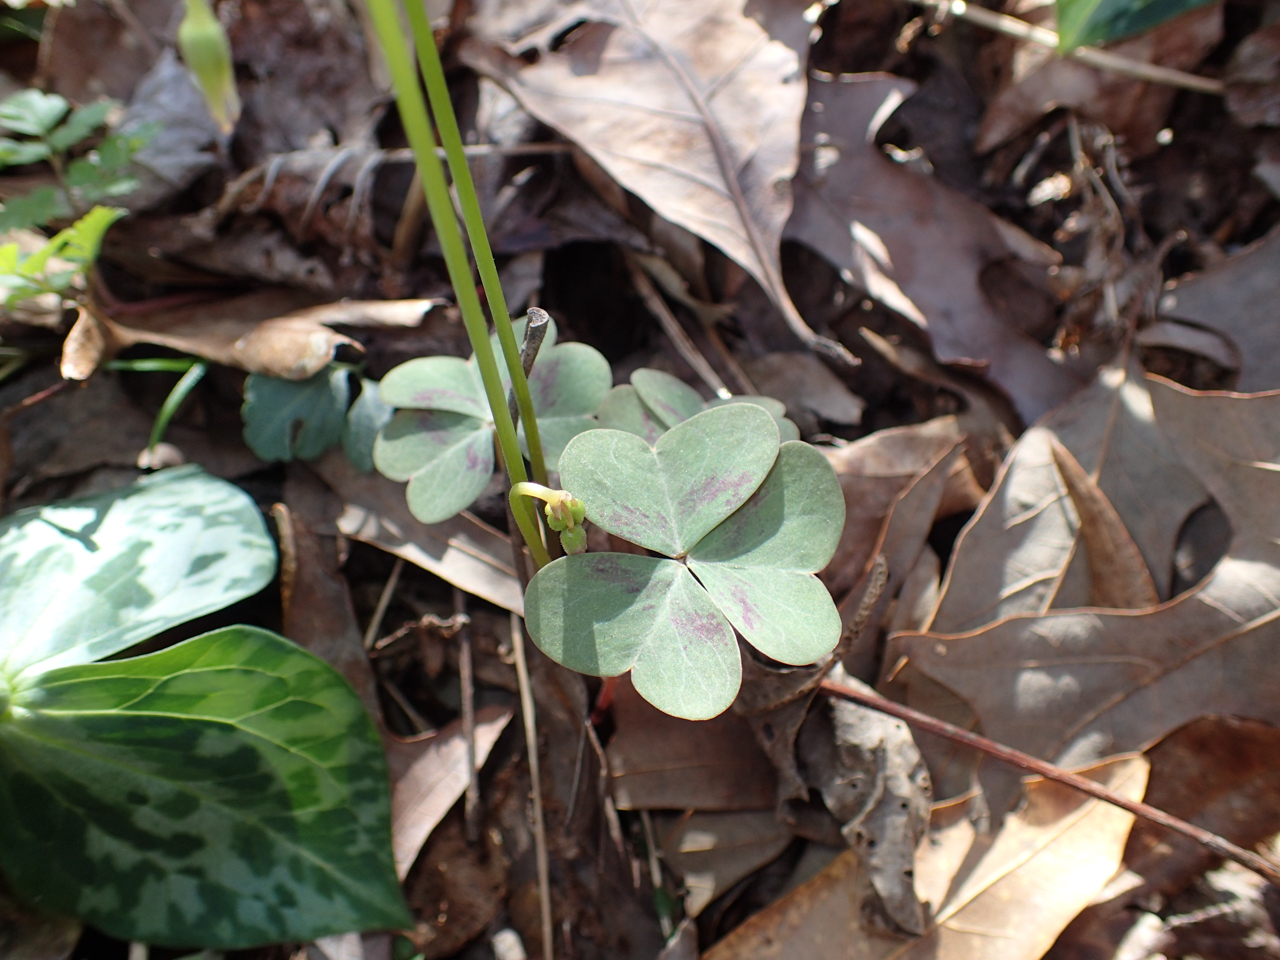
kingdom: Plantae
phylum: Tracheophyta
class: Magnoliopsida
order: Oxalidales
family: Oxalidaceae
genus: Oxalis
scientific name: Oxalis violacea
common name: Violet wood-sorrel
